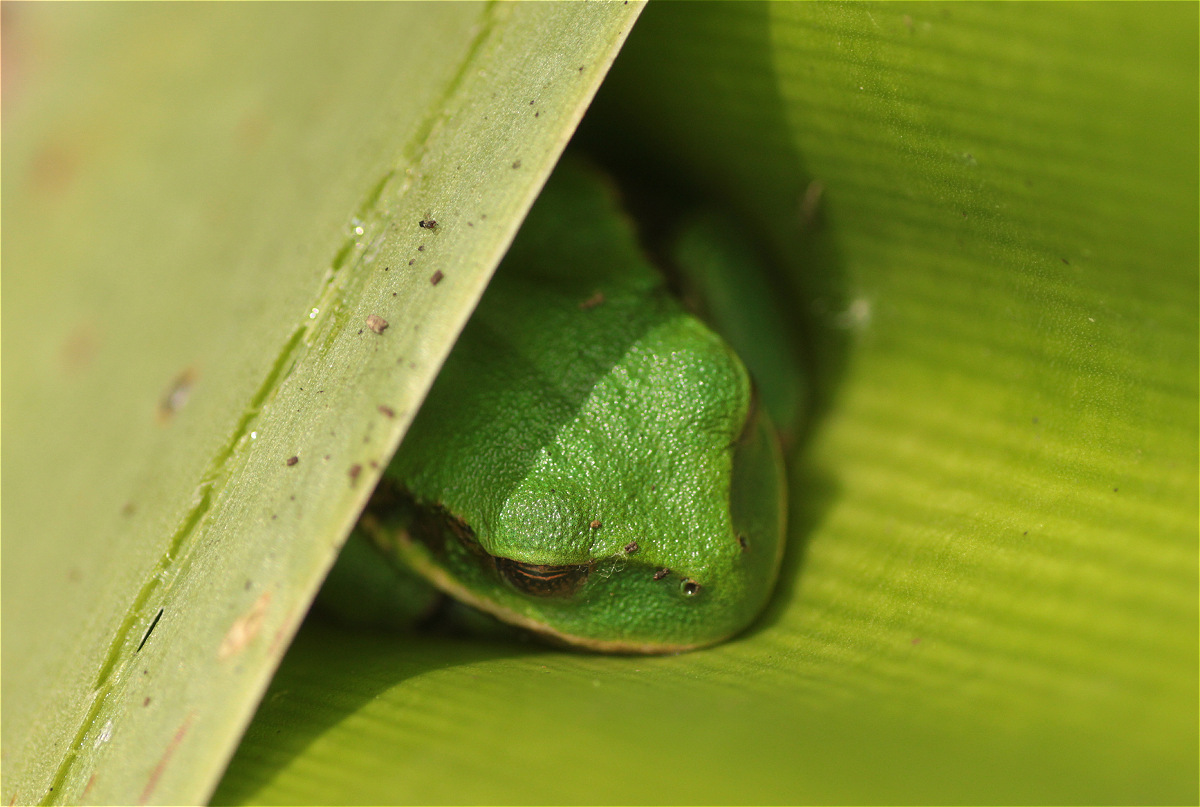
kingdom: Animalia
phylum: Chordata
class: Amphibia
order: Anura
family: Hemiphractidae
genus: Gastrotheca
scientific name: Gastrotheca cuencana
